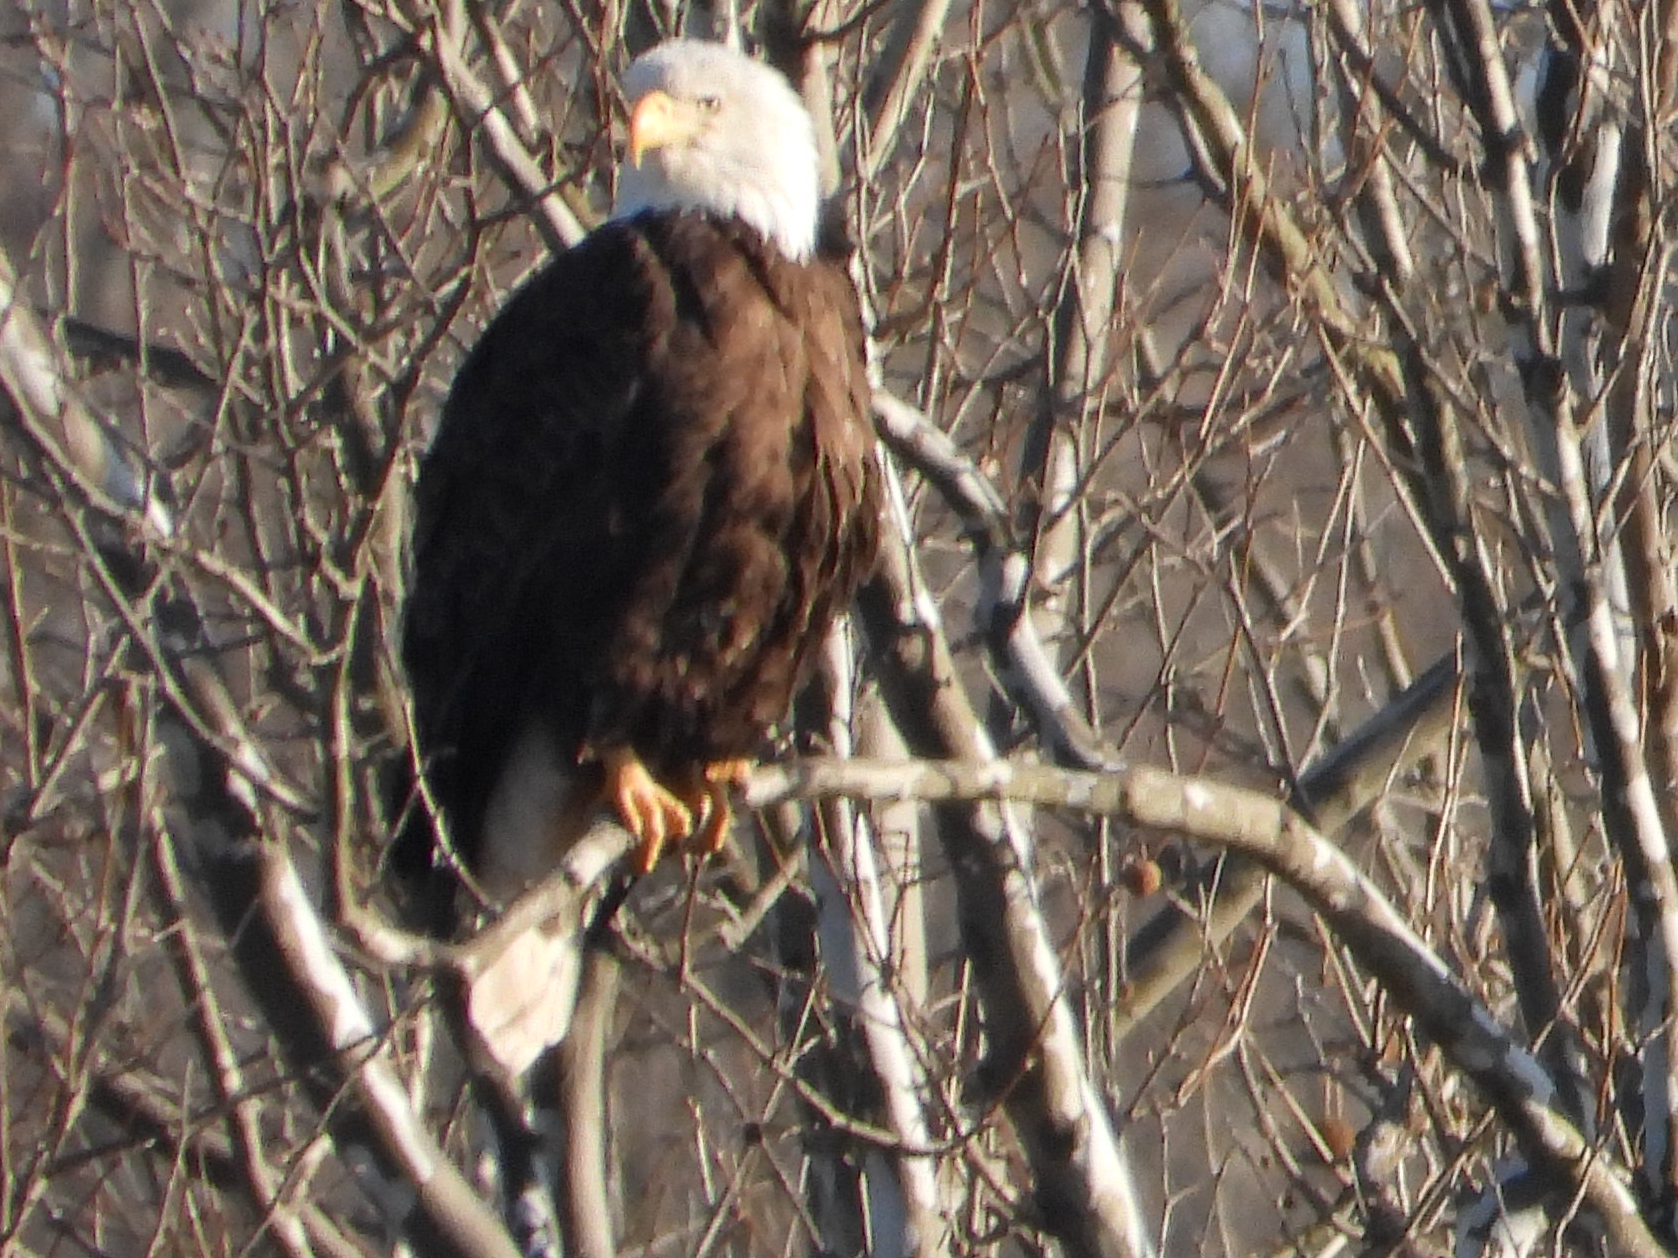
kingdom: Animalia
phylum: Chordata
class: Aves
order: Accipitriformes
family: Accipitridae
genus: Haliaeetus
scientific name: Haliaeetus leucocephalus
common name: Bald eagle
